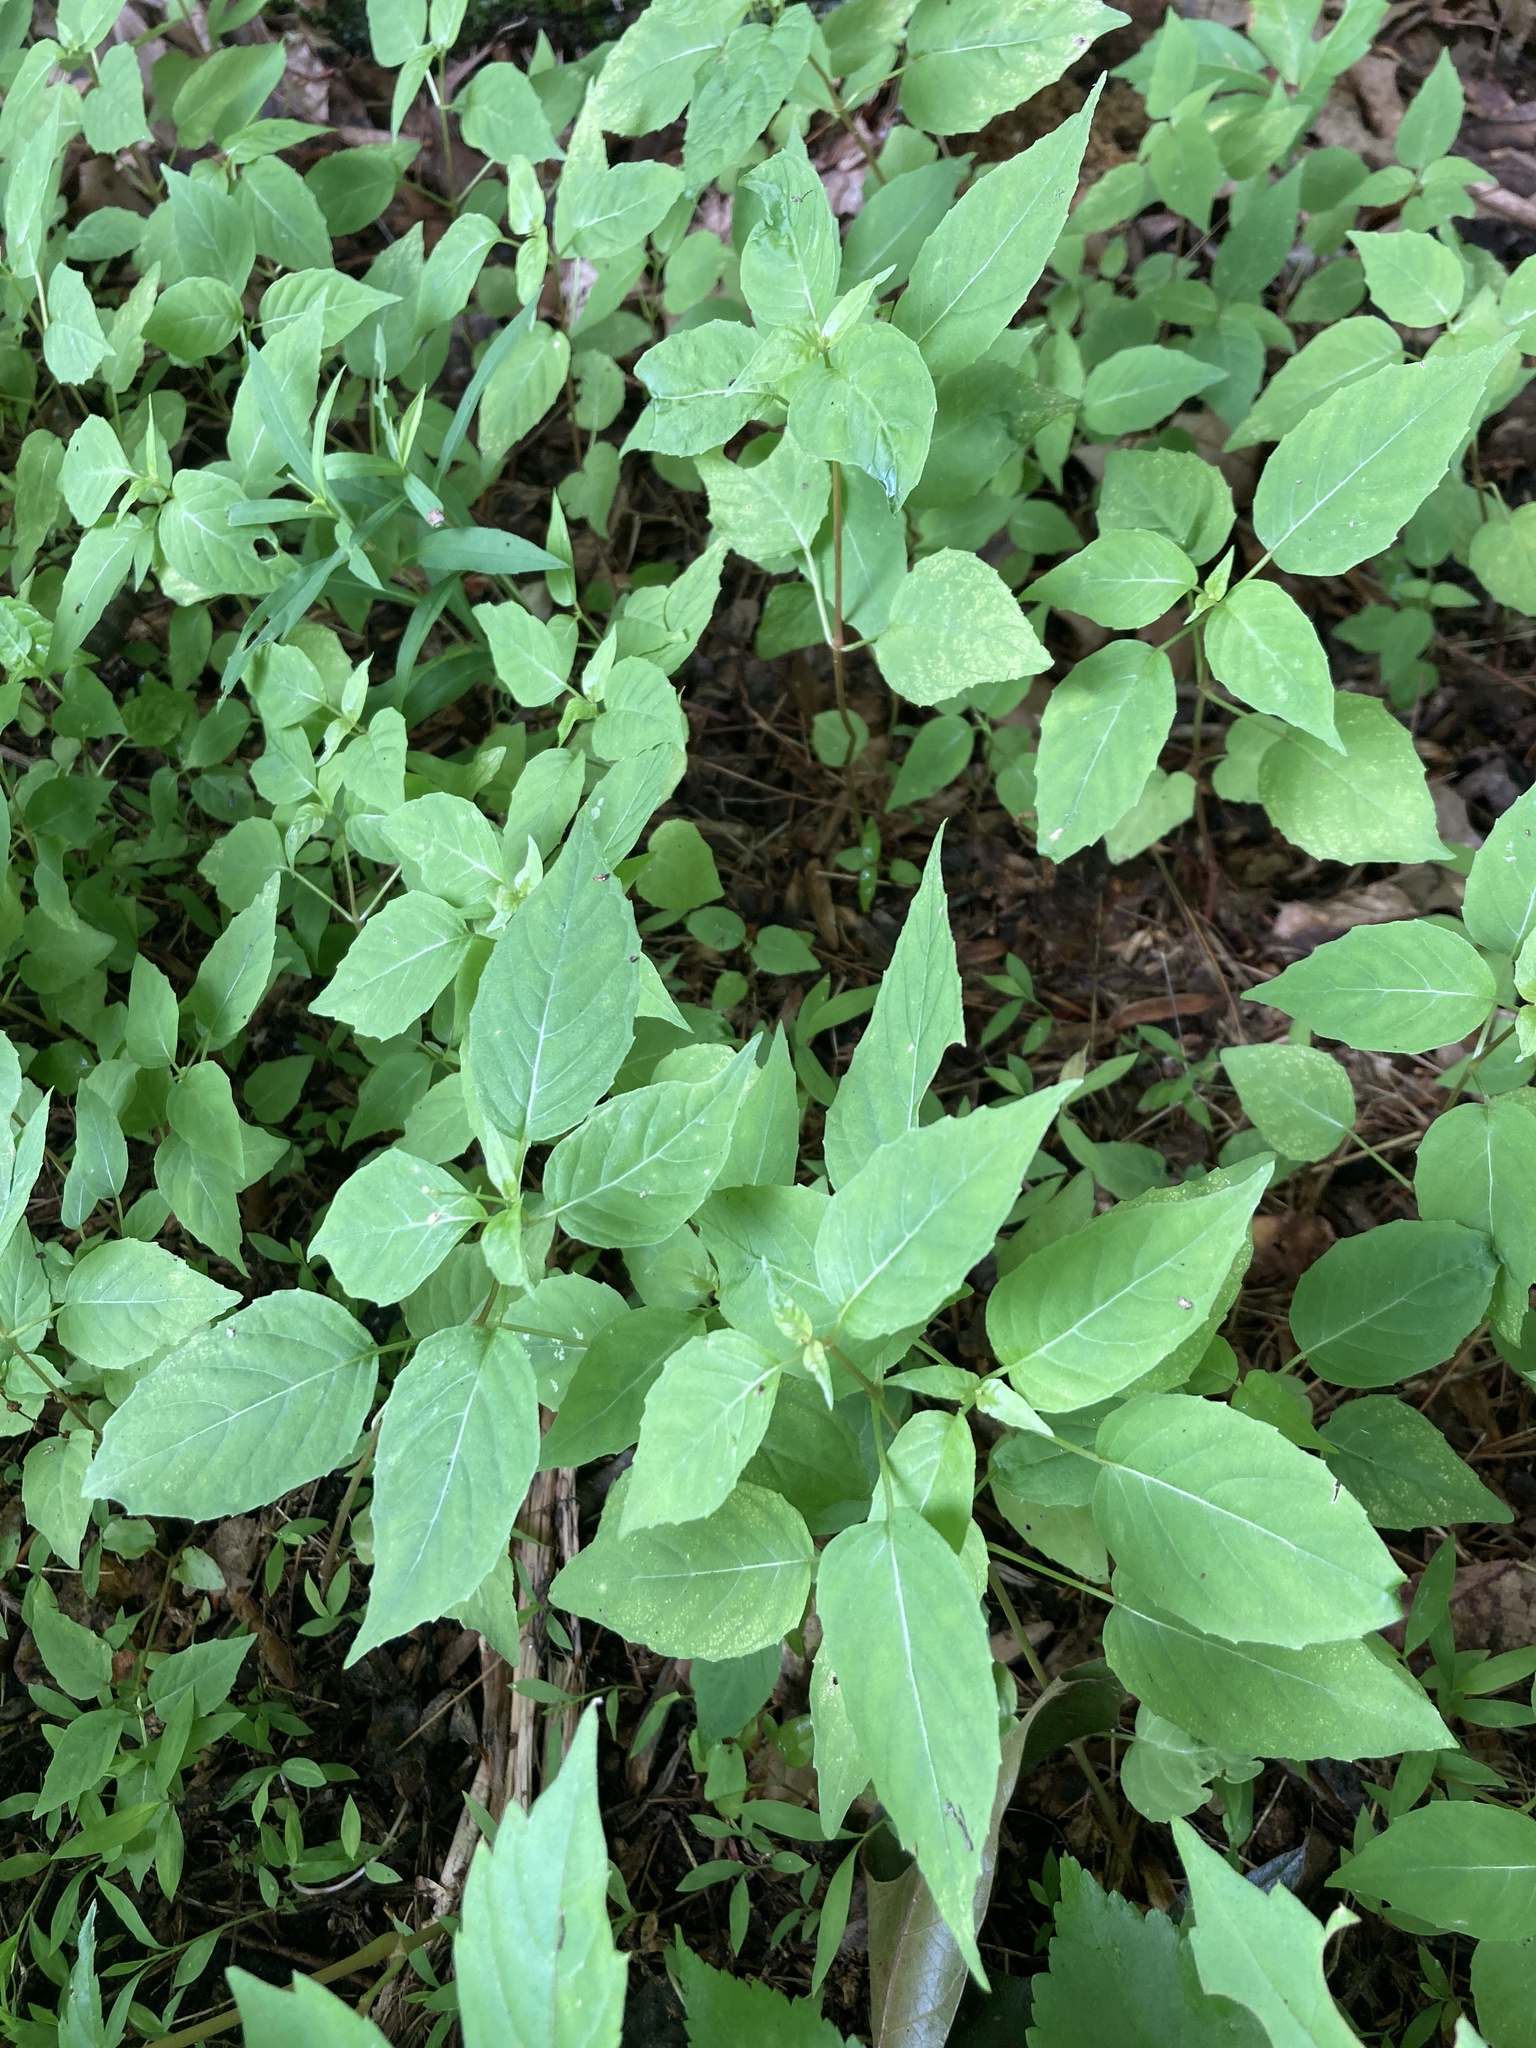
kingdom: Plantae
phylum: Tracheophyta
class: Magnoliopsida
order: Myrtales
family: Onagraceae
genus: Circaea
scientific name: Circaea canadensis
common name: Broad-leaved enchanter's nightshade
